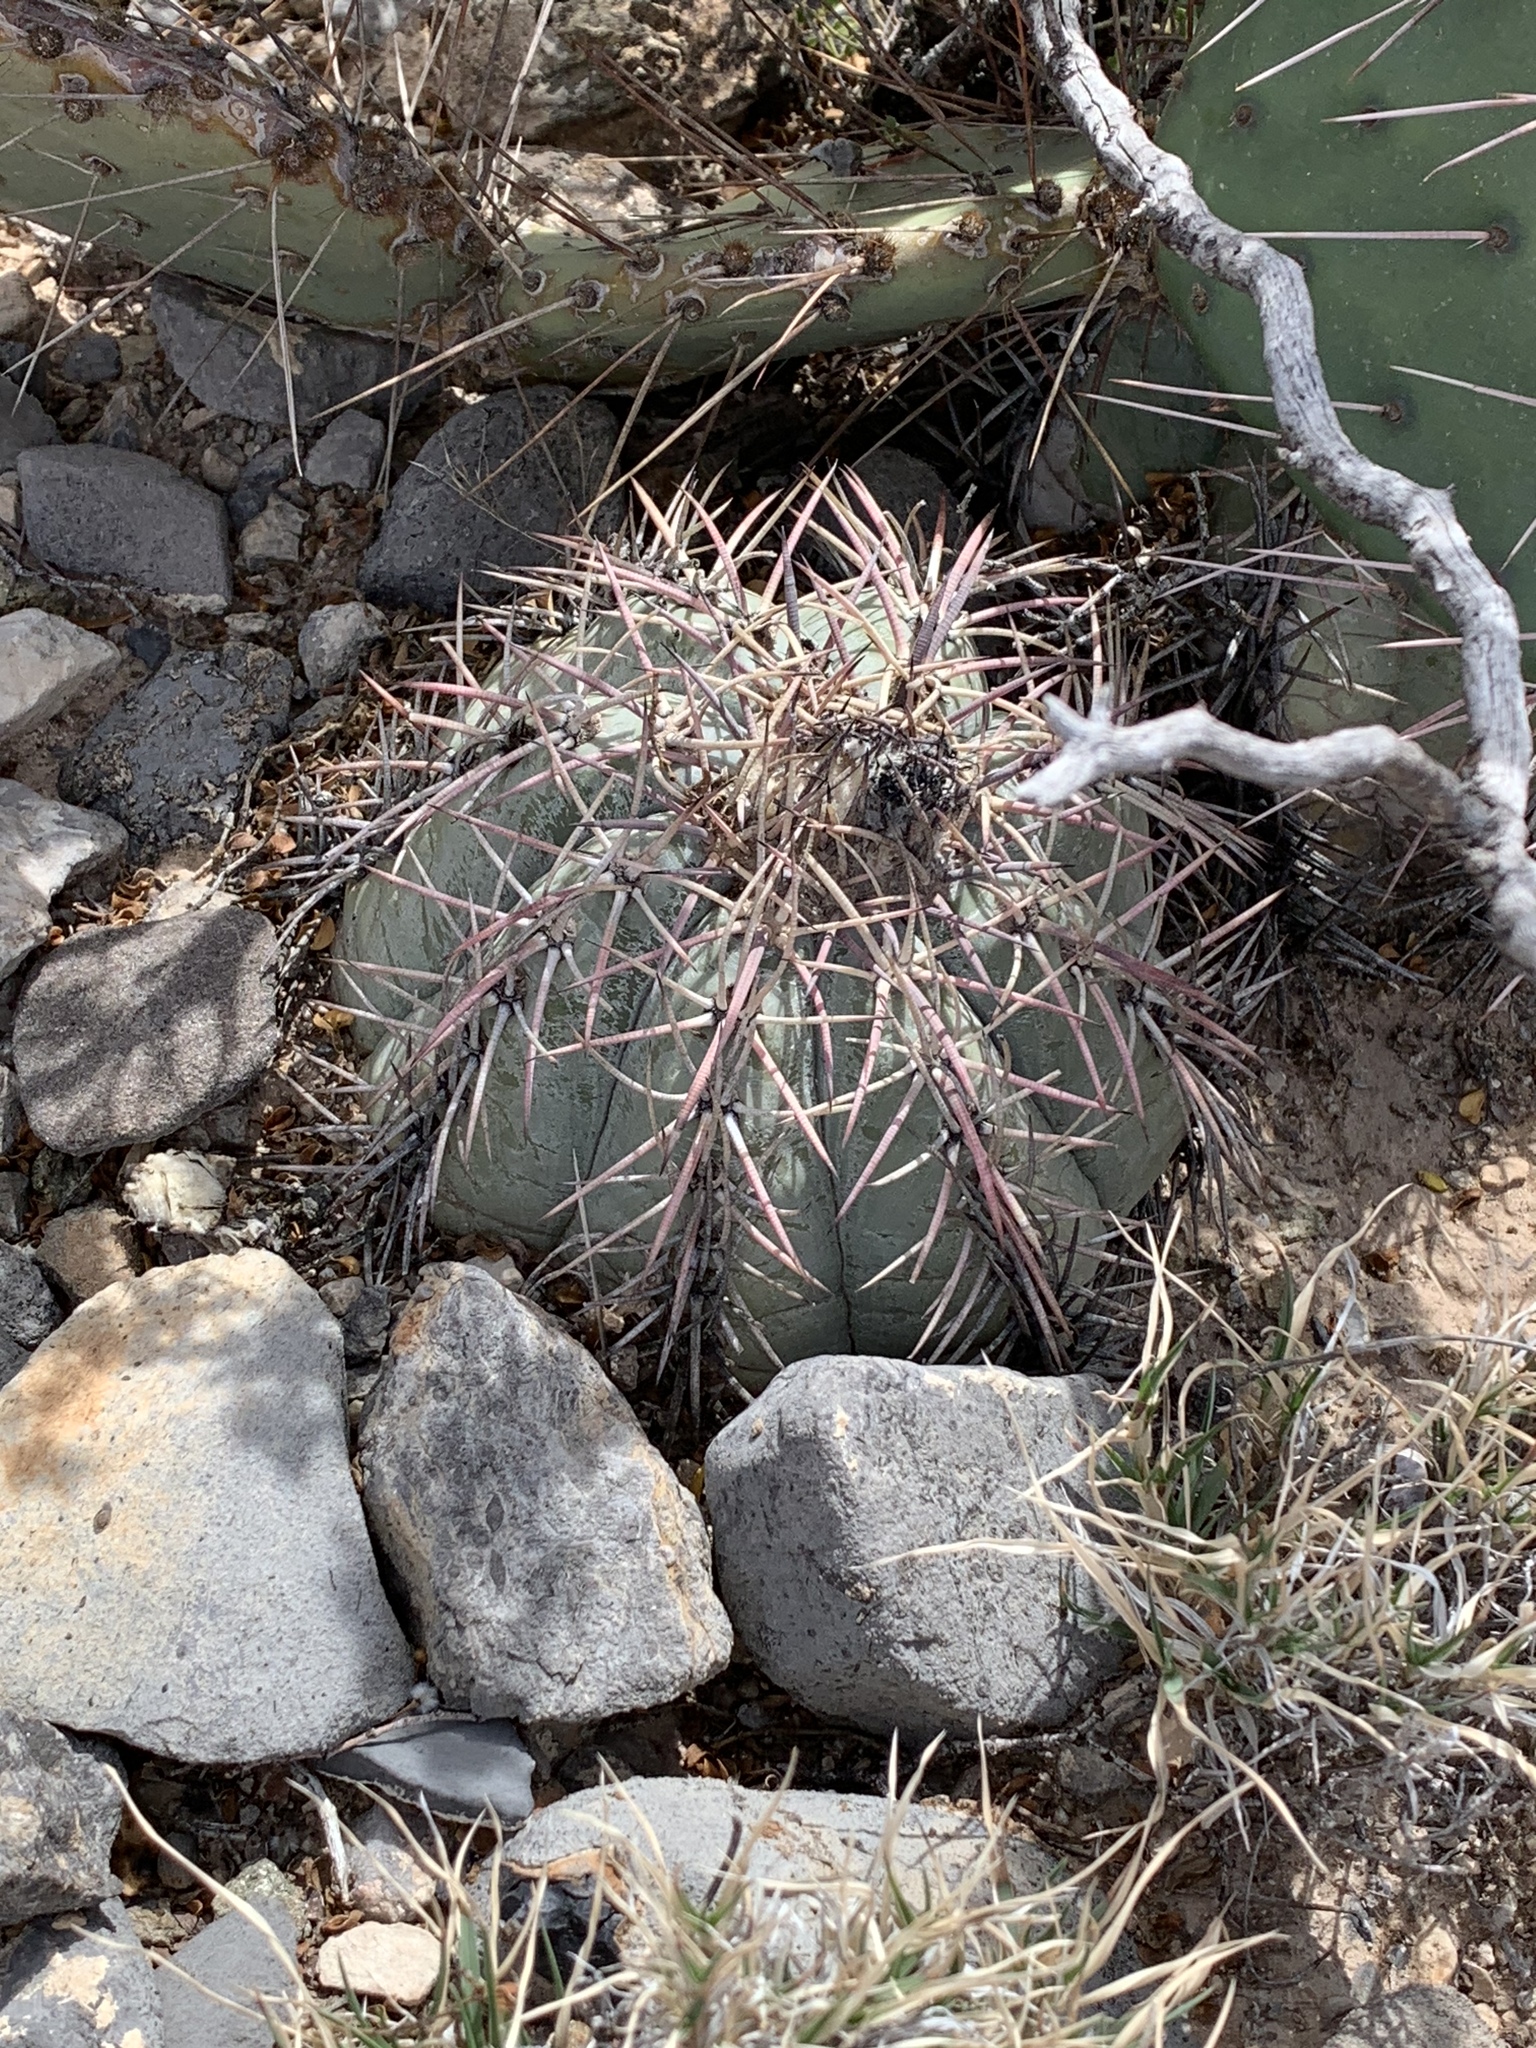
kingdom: Plantae
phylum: Tracheophyta
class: Magnoliopsida
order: Caryophyllales
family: Cactaceae
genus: Echinocactus
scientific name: Echinocactus horizonthalonius
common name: Devilshead
